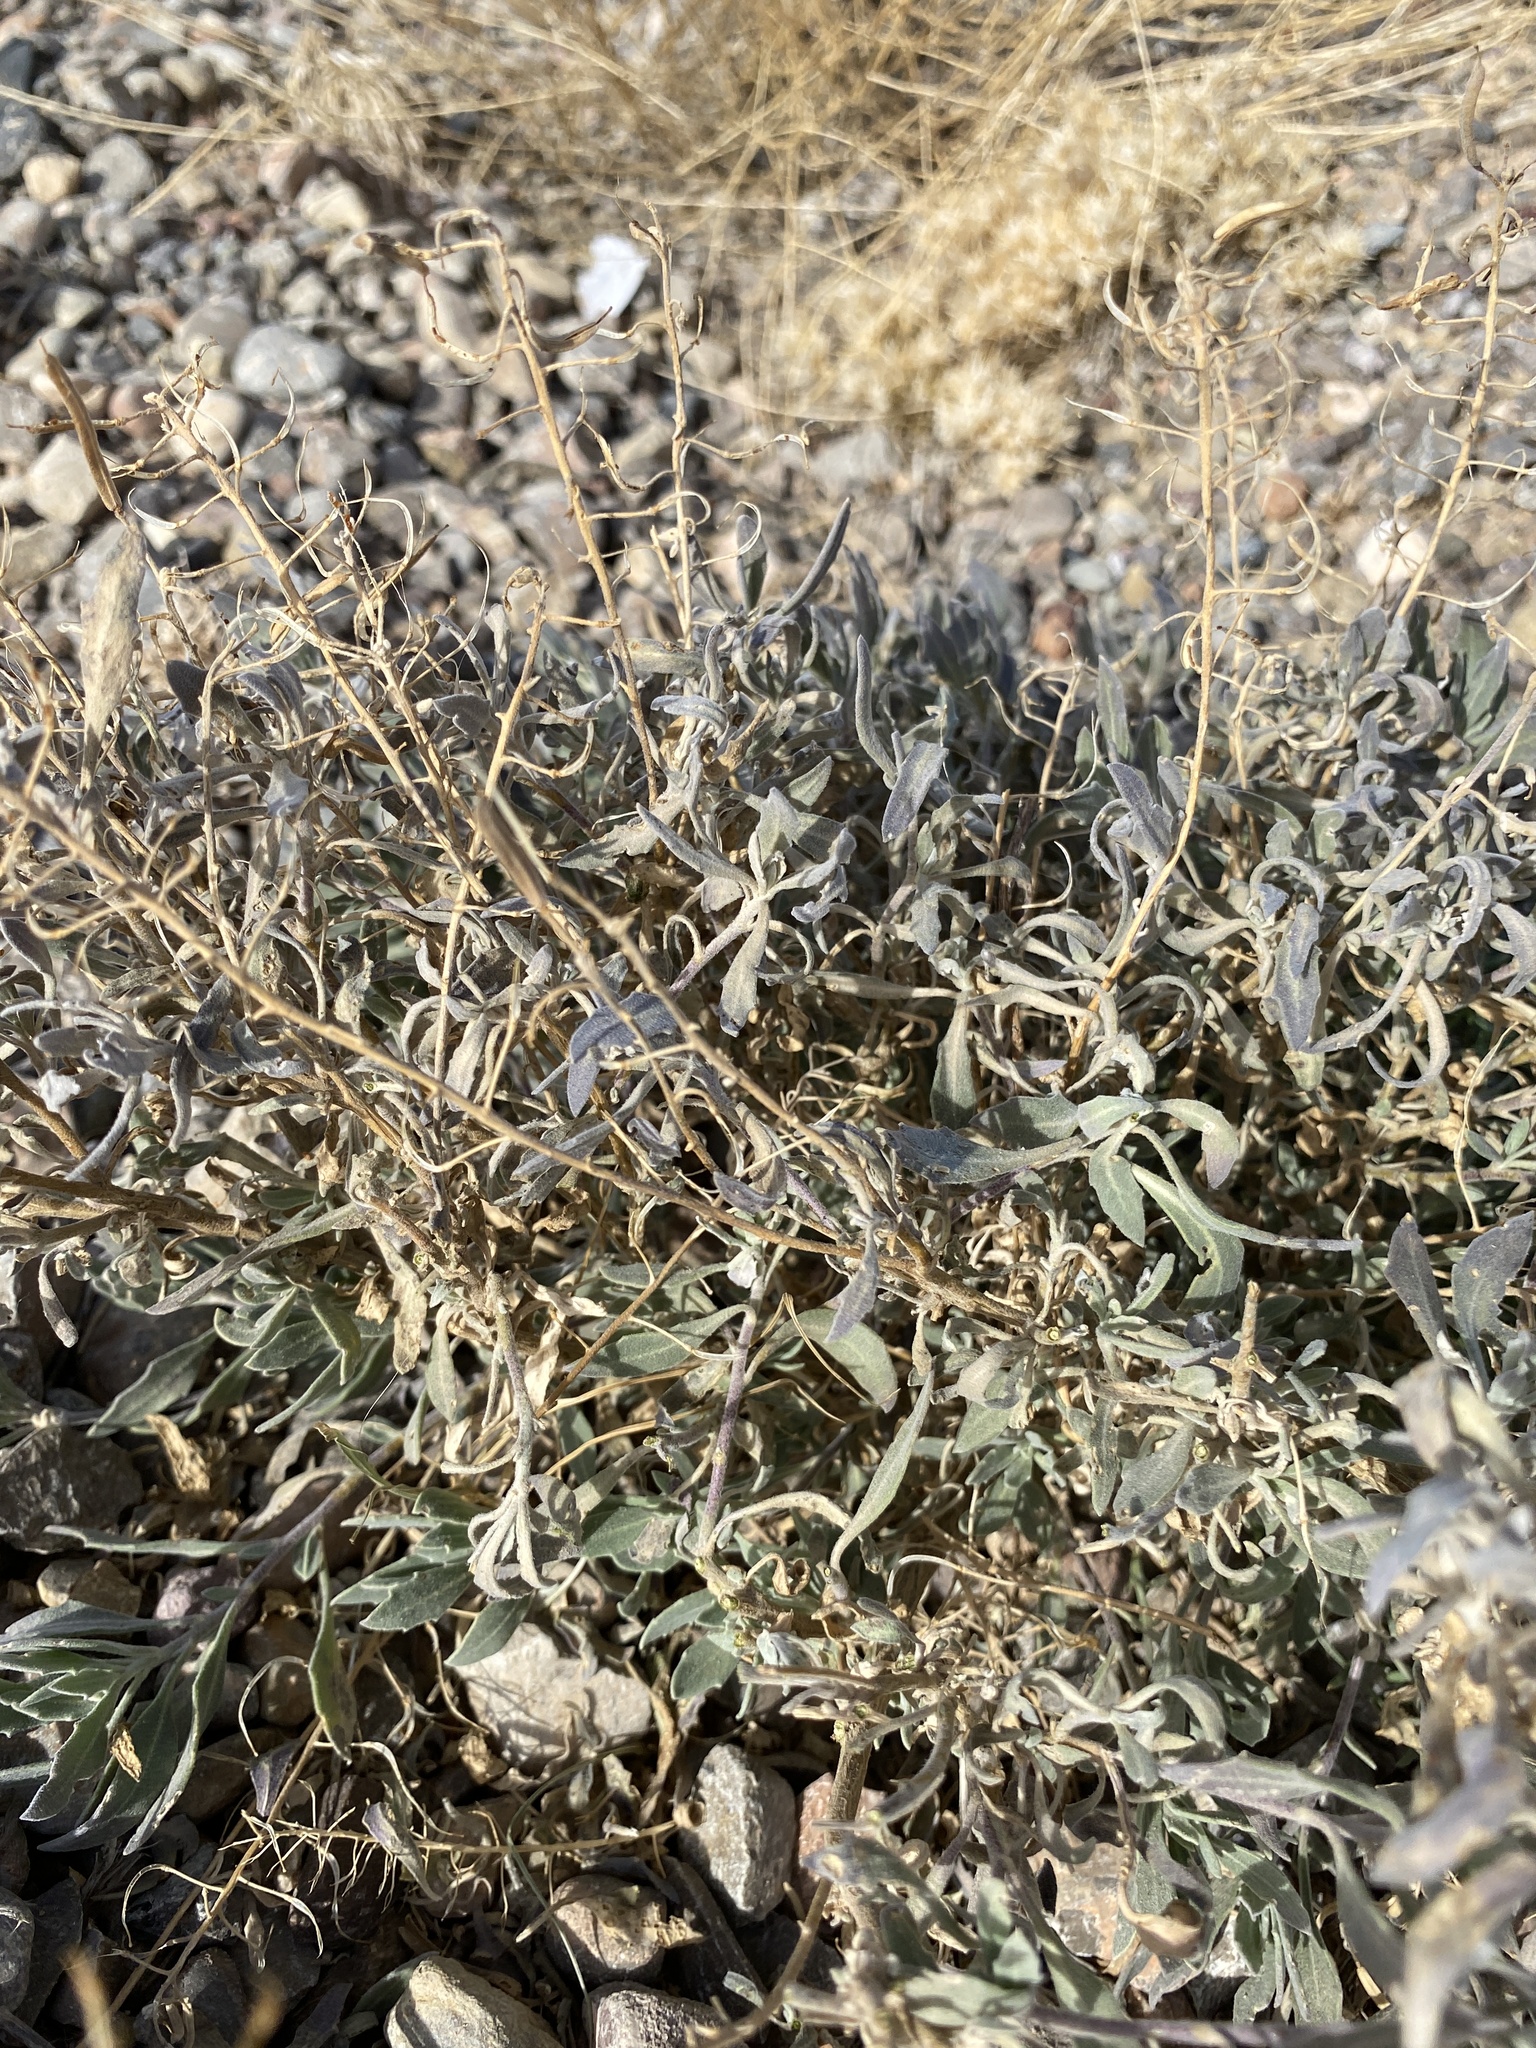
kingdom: Plantae
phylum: Tracheophyta
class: Magnoliopsida
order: Brassicales
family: Brassicaceae
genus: Nerisyrenia
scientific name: Nerisyrenia camporum
